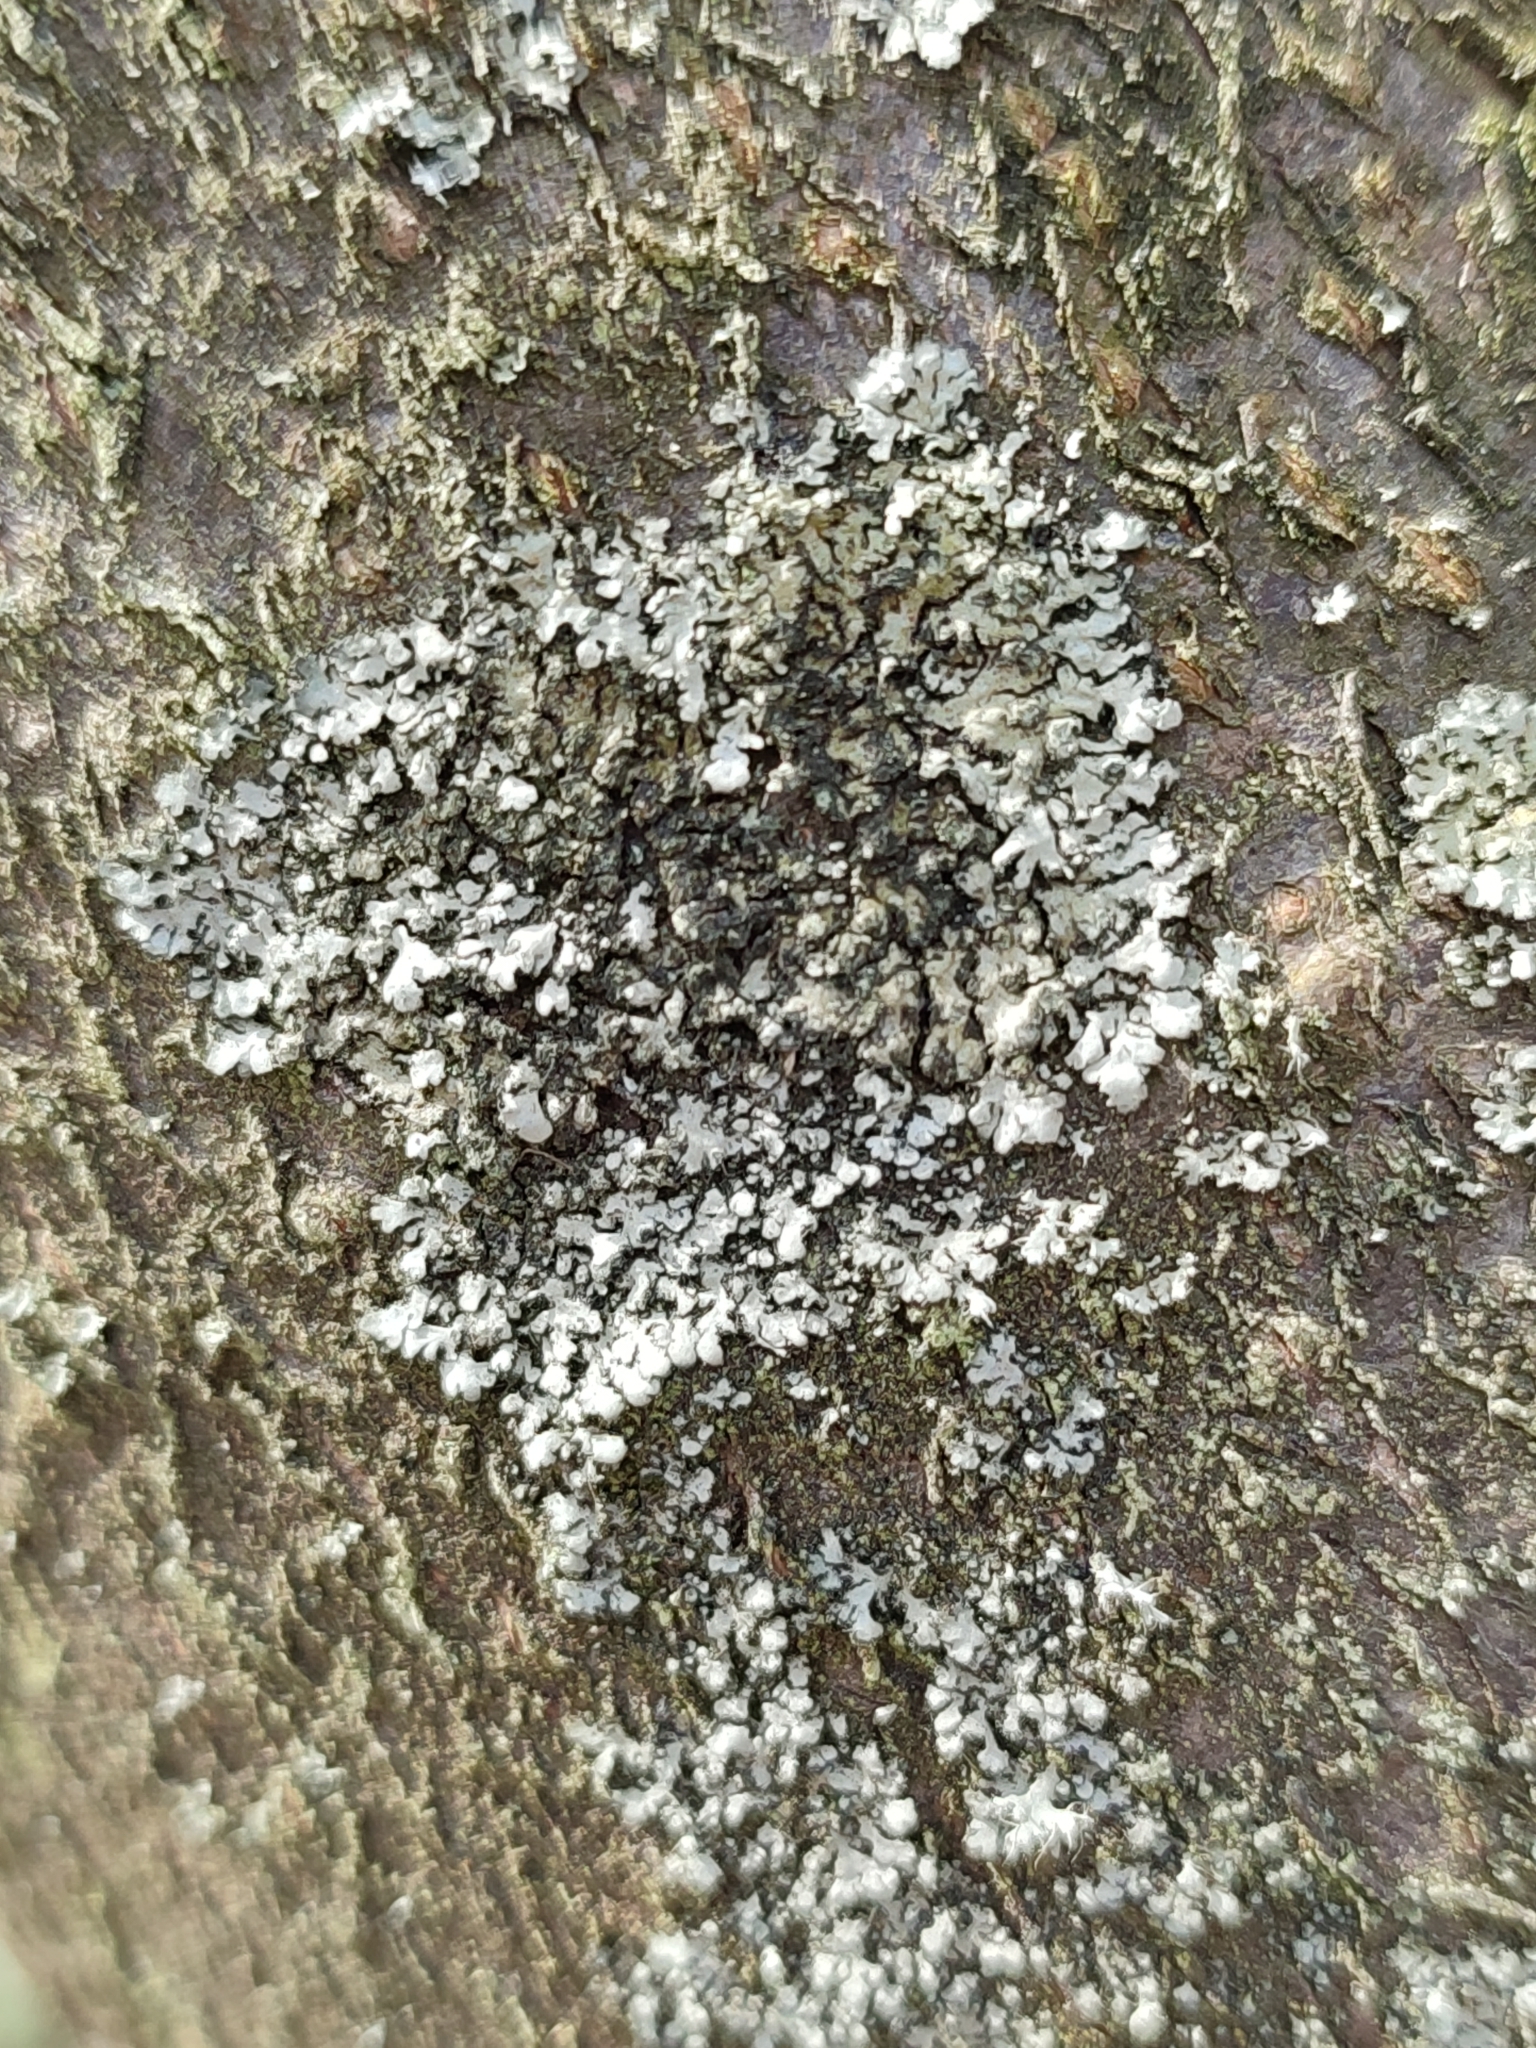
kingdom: Fungi
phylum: Ascomycota
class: Lecanoromycetes
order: Caliciales
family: Physciaceae
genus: Phaeophyscia
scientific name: Phaeophyscia orbicularis
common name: Mealy shadow lichen
